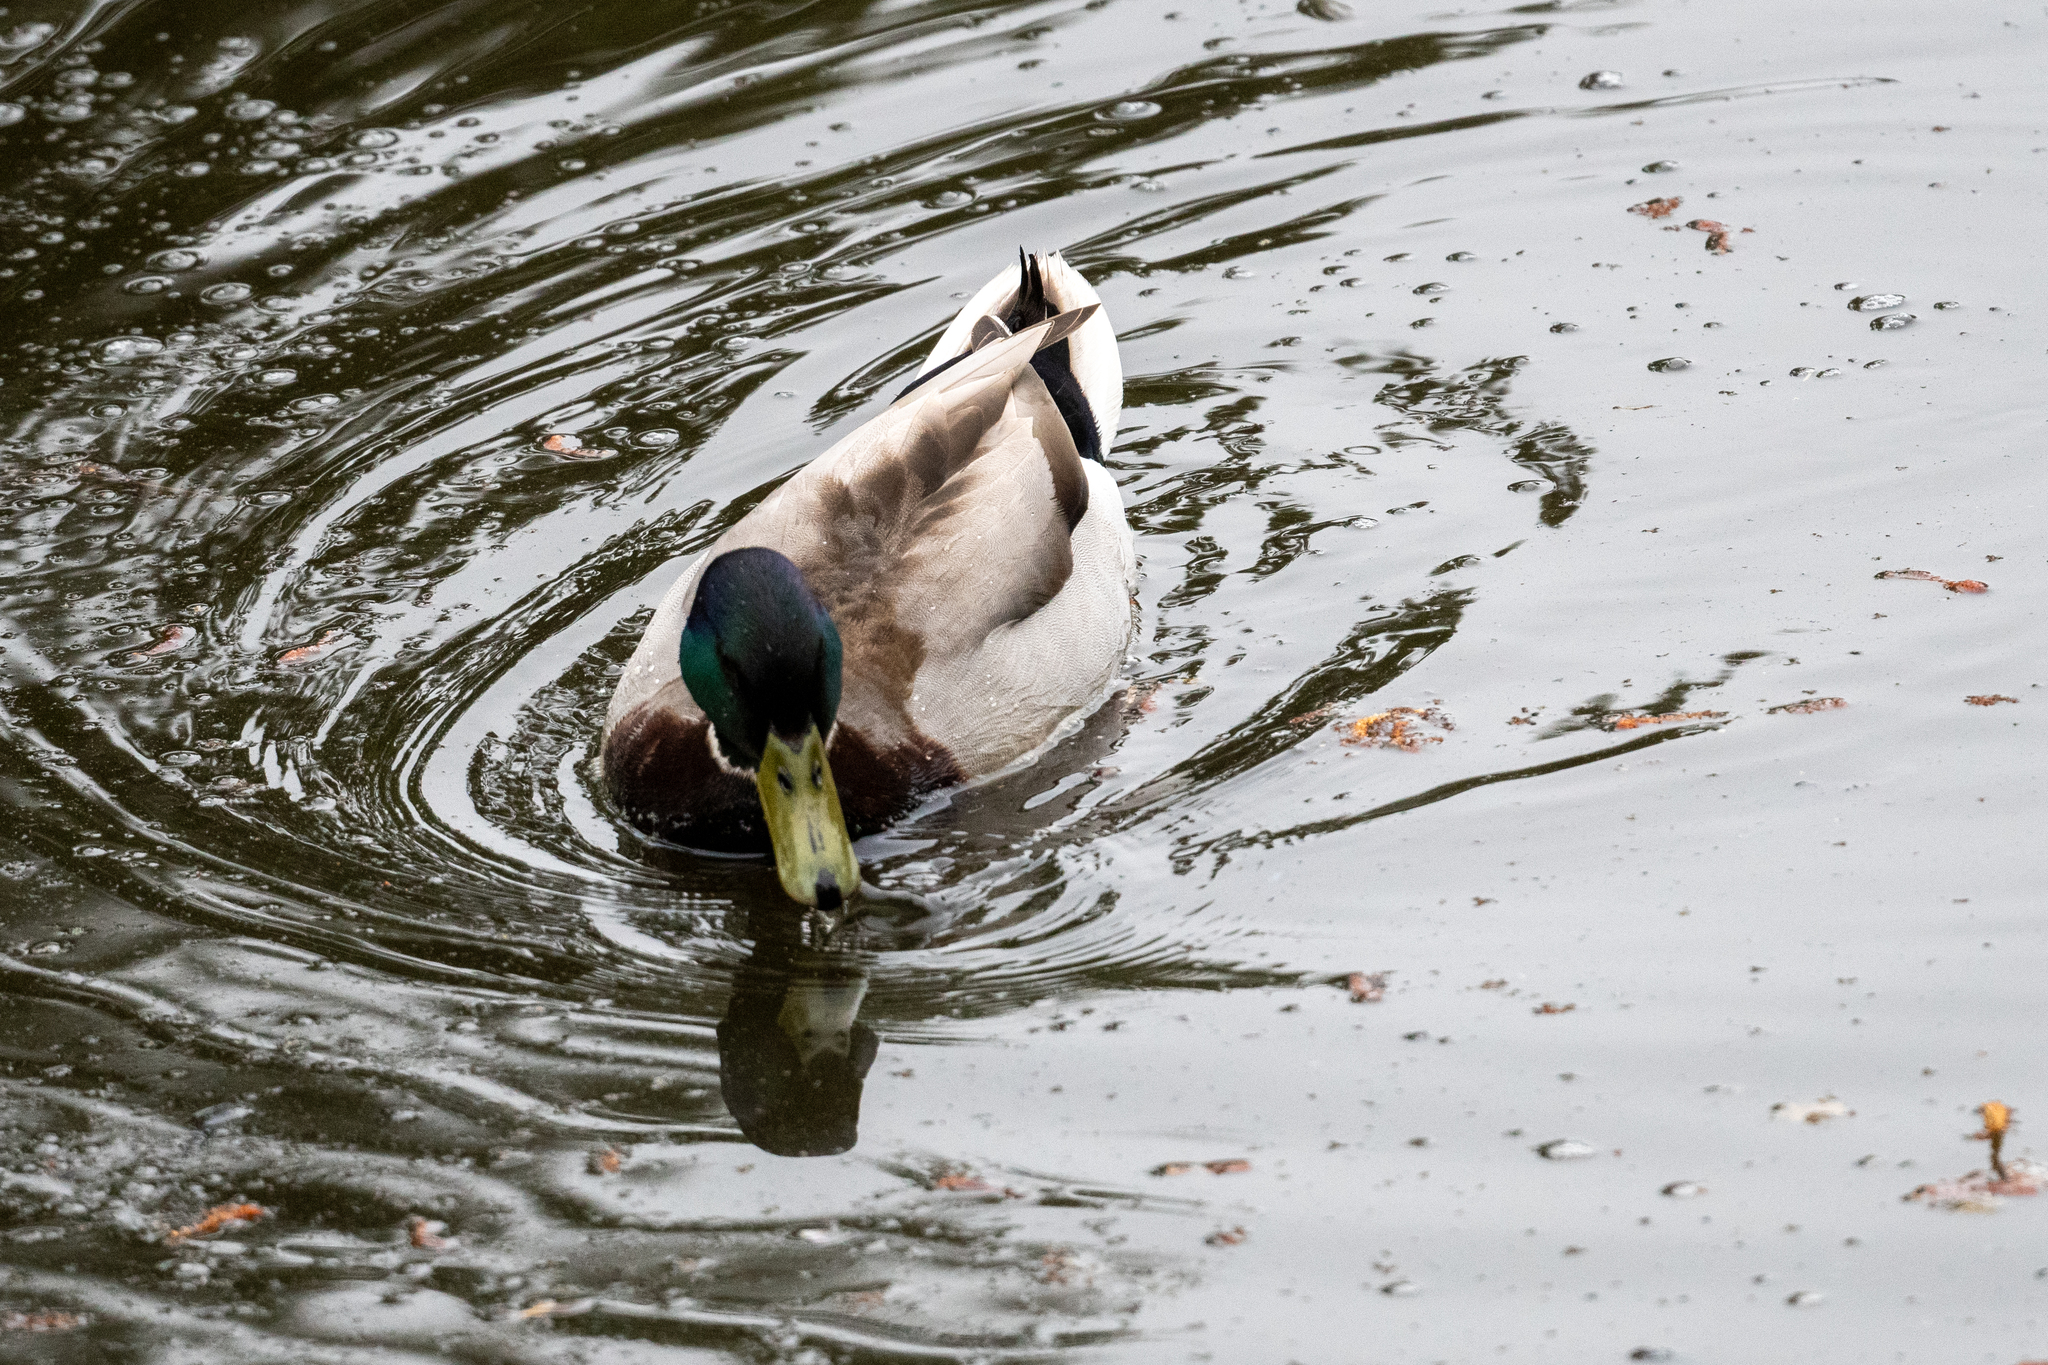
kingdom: Animalia
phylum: Chordata
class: Aves
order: Anseriformes
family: Anatidae
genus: Anas
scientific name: Anas platyrhynchos
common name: Mallard
